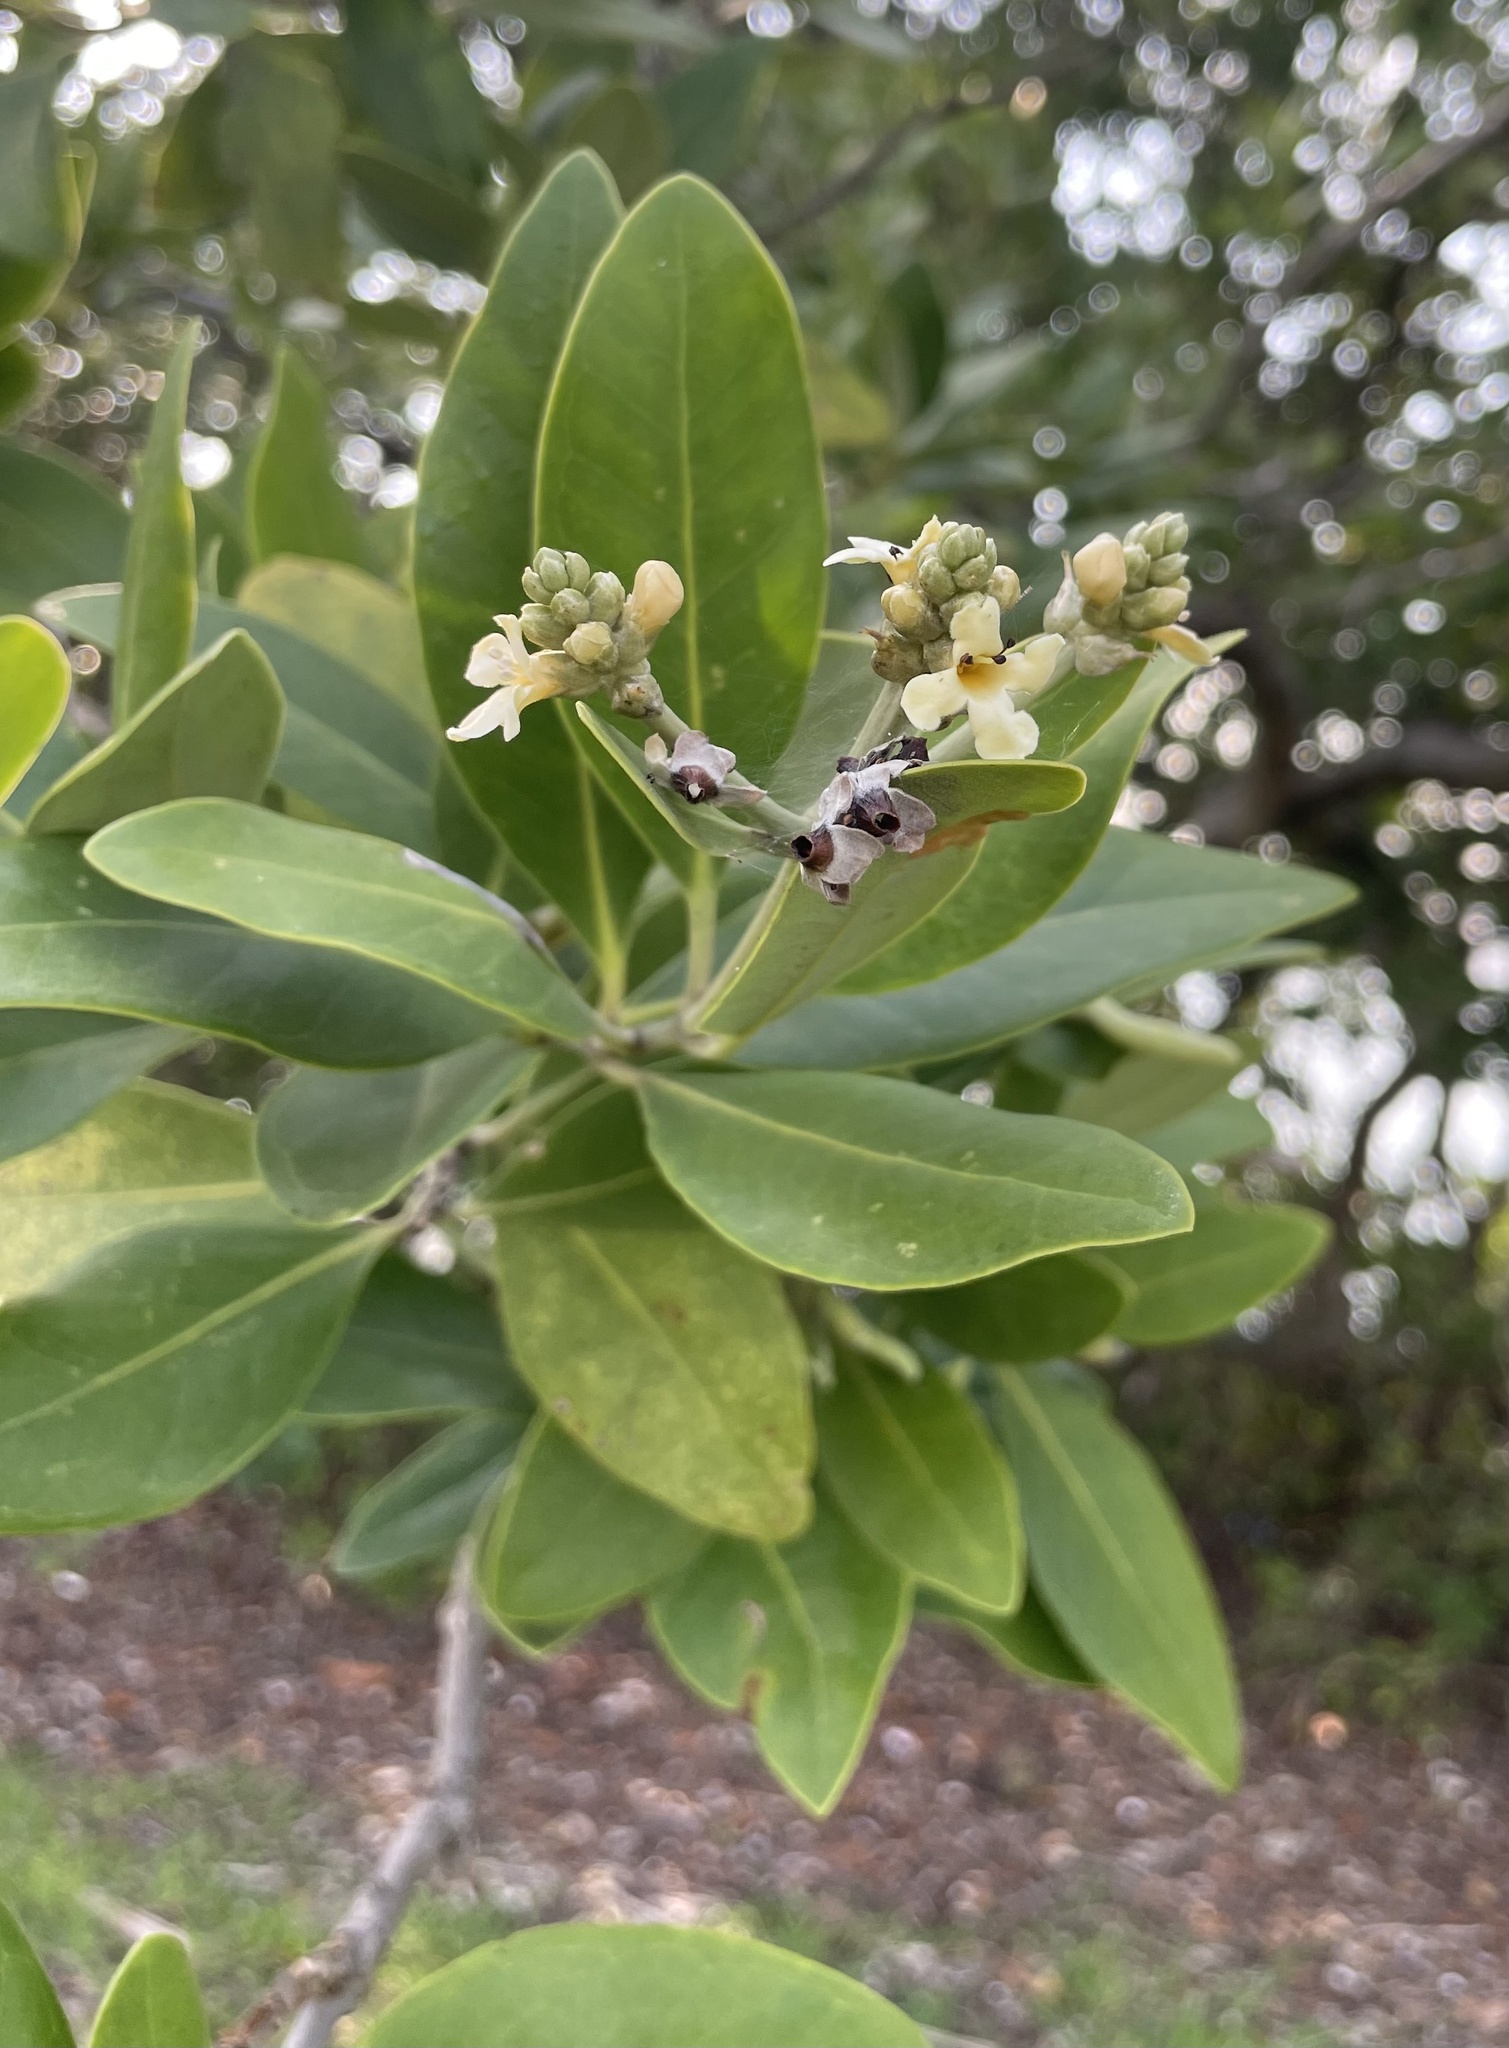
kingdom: Plantae
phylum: Tracheophyta
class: Magnoliopsida
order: Lamiales
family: Acanthaceae
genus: Avicennia
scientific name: Avicennia germinans
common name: Black mangrove
